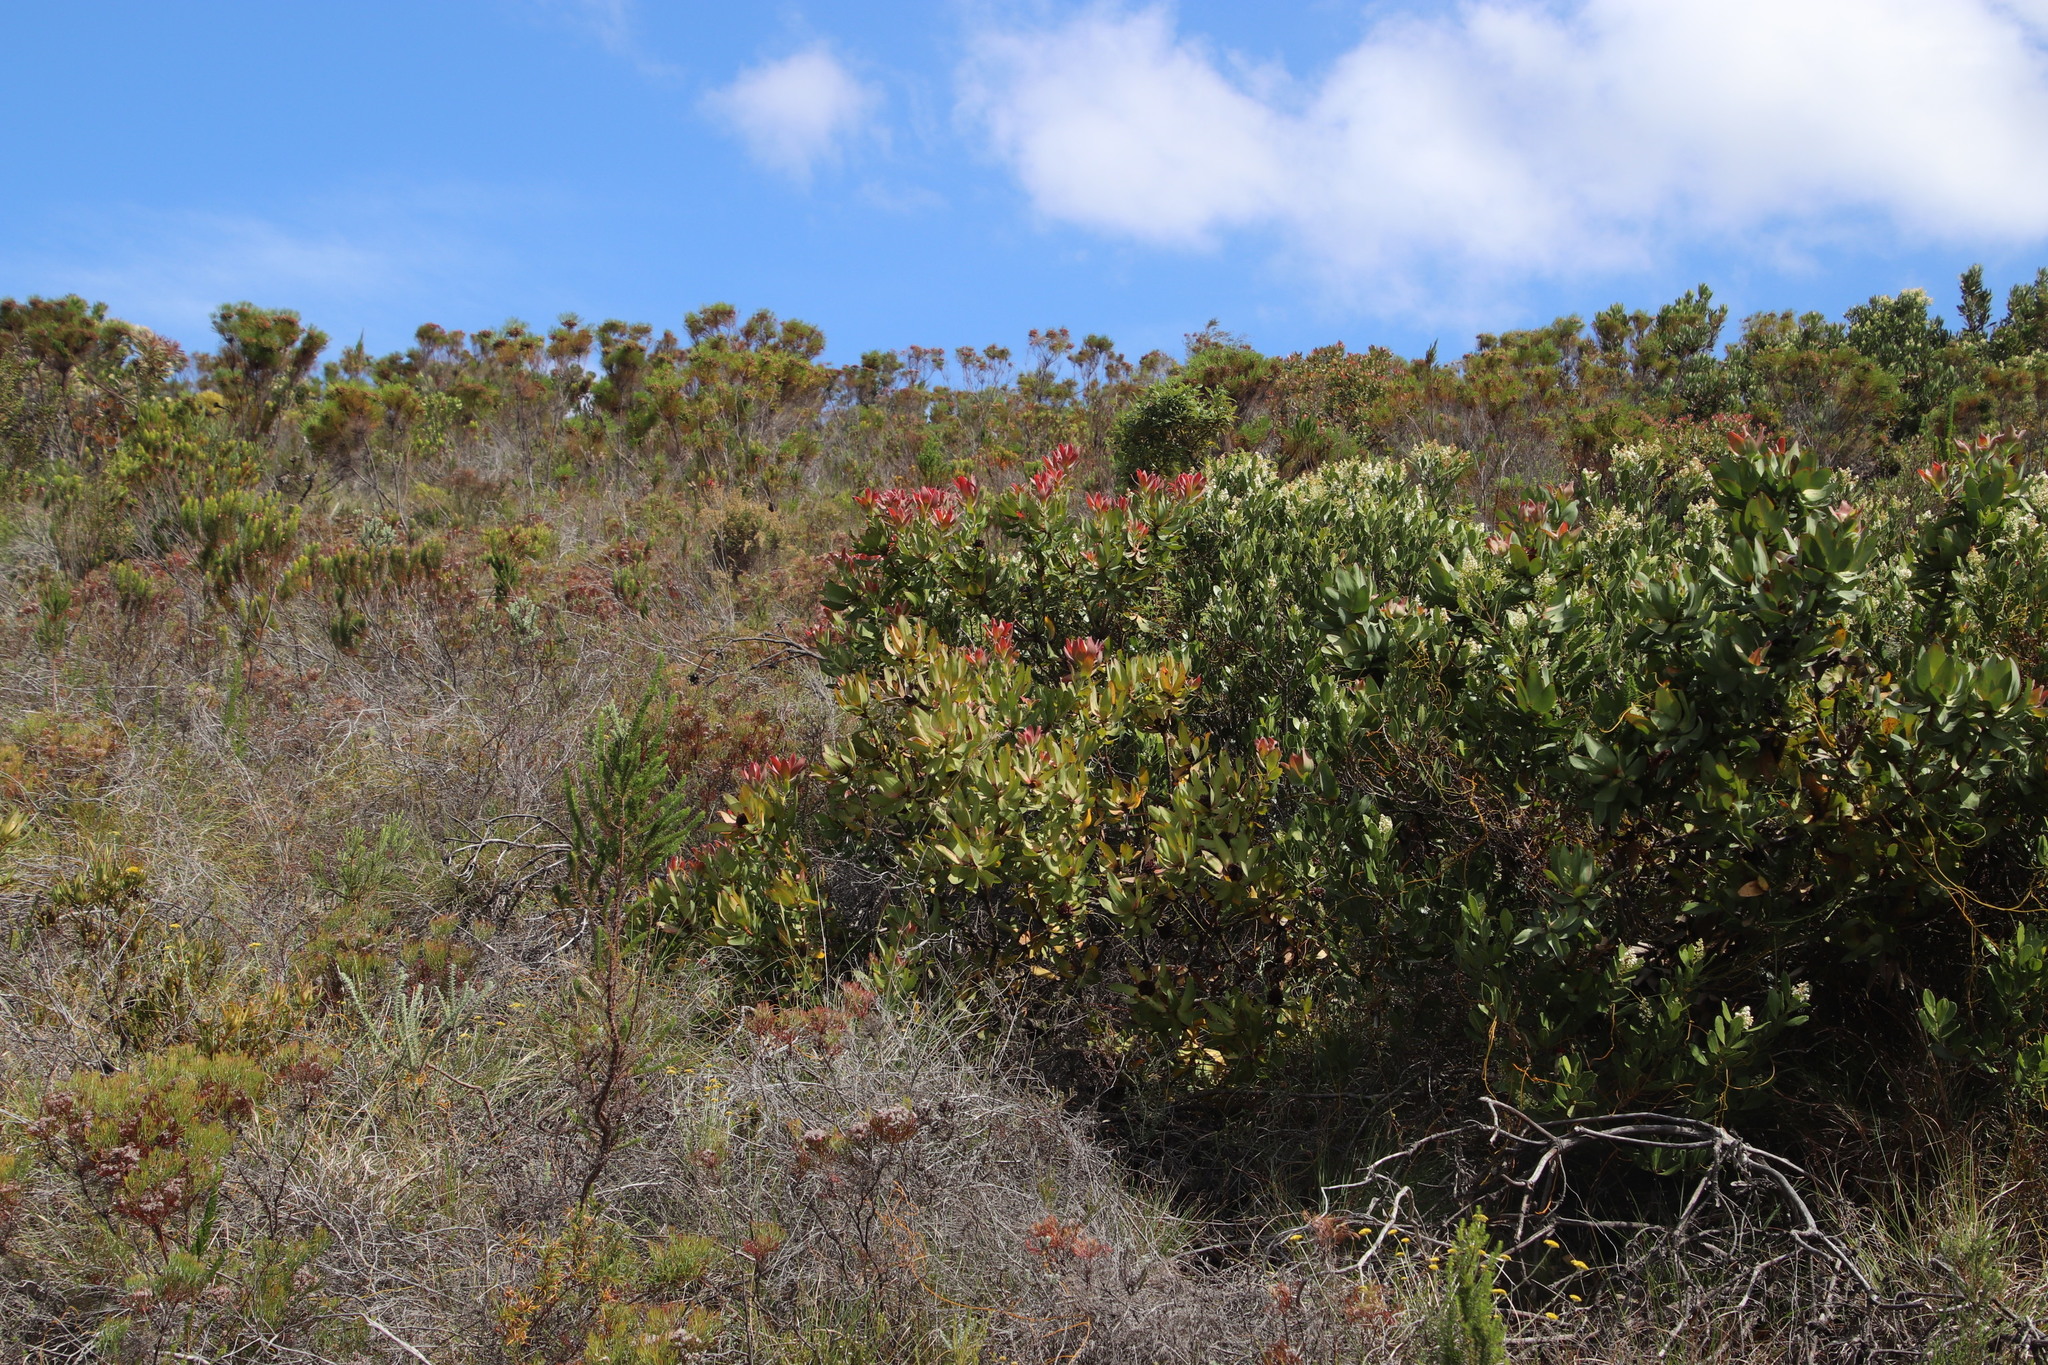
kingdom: Plantae
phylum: Tracheophyta
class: Magnoliopsida
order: Proteales
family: Proteaceae
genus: Leucadendron
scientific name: Leucadendron tinctum
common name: Spicy conebush
